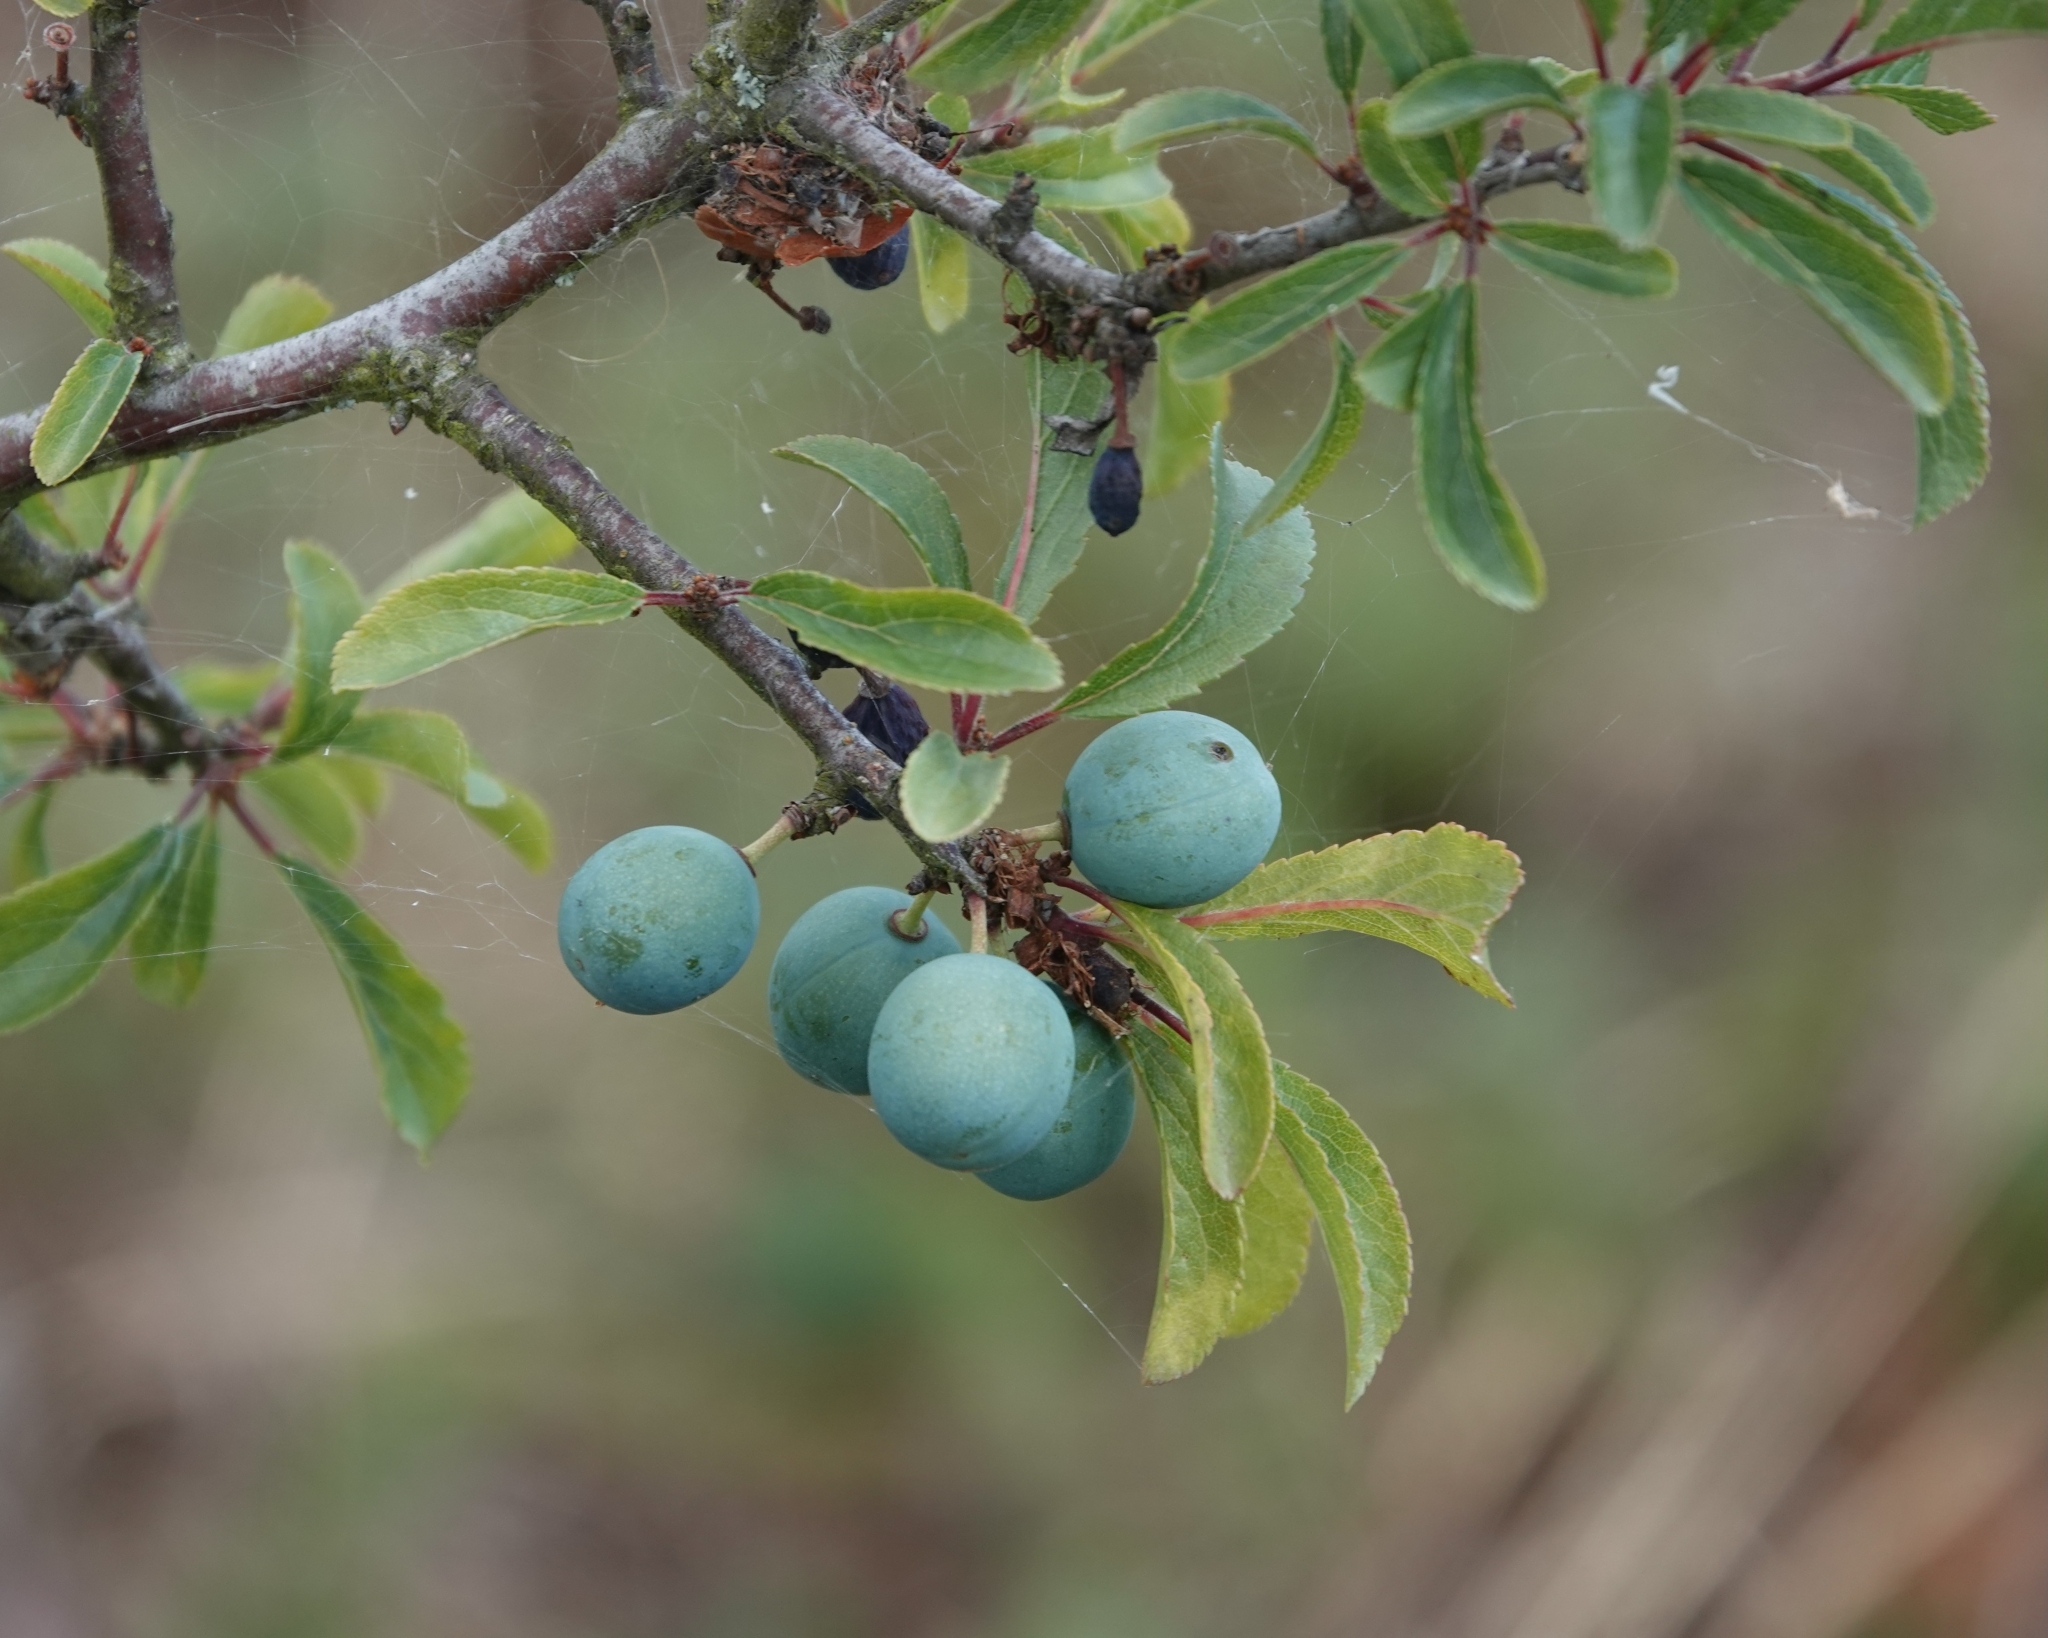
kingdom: Plantae
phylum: Tracheophyta
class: Magnoliopsida
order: Rosales
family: Rosaceae
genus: Prunus
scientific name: Prunus spinosa
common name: Blackthorn
